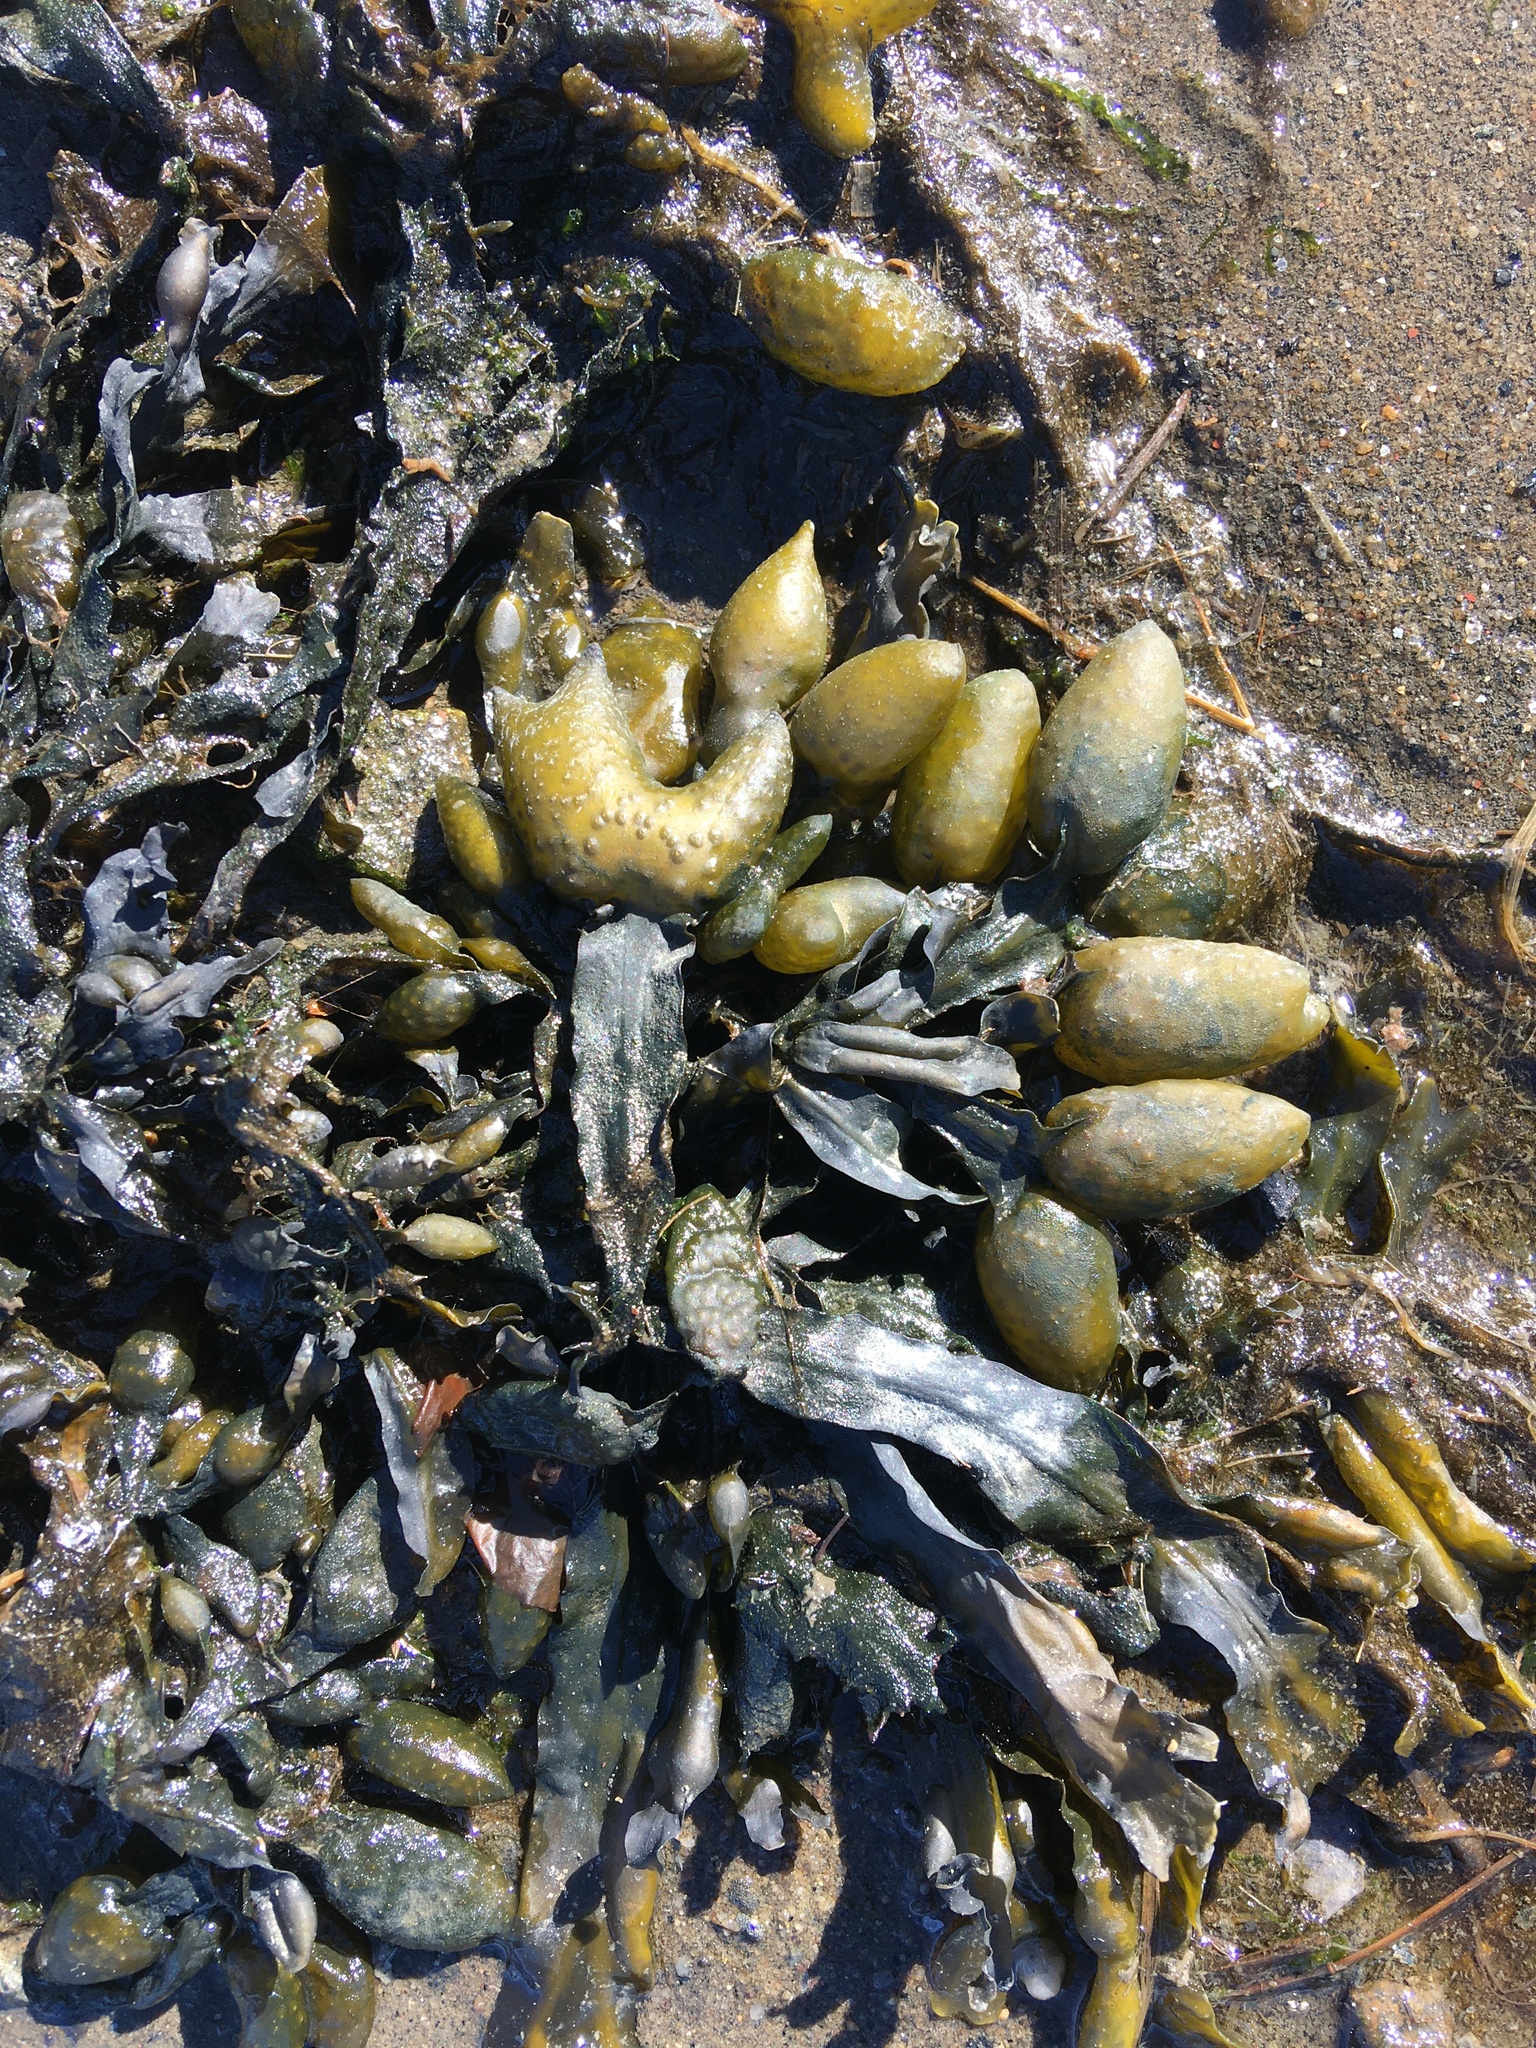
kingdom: Chromista
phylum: Ochrophyta
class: Phaeophyceae
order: Fucales
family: Fucaceae
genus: Fucus
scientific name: Fucus distichus
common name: Rockweed
